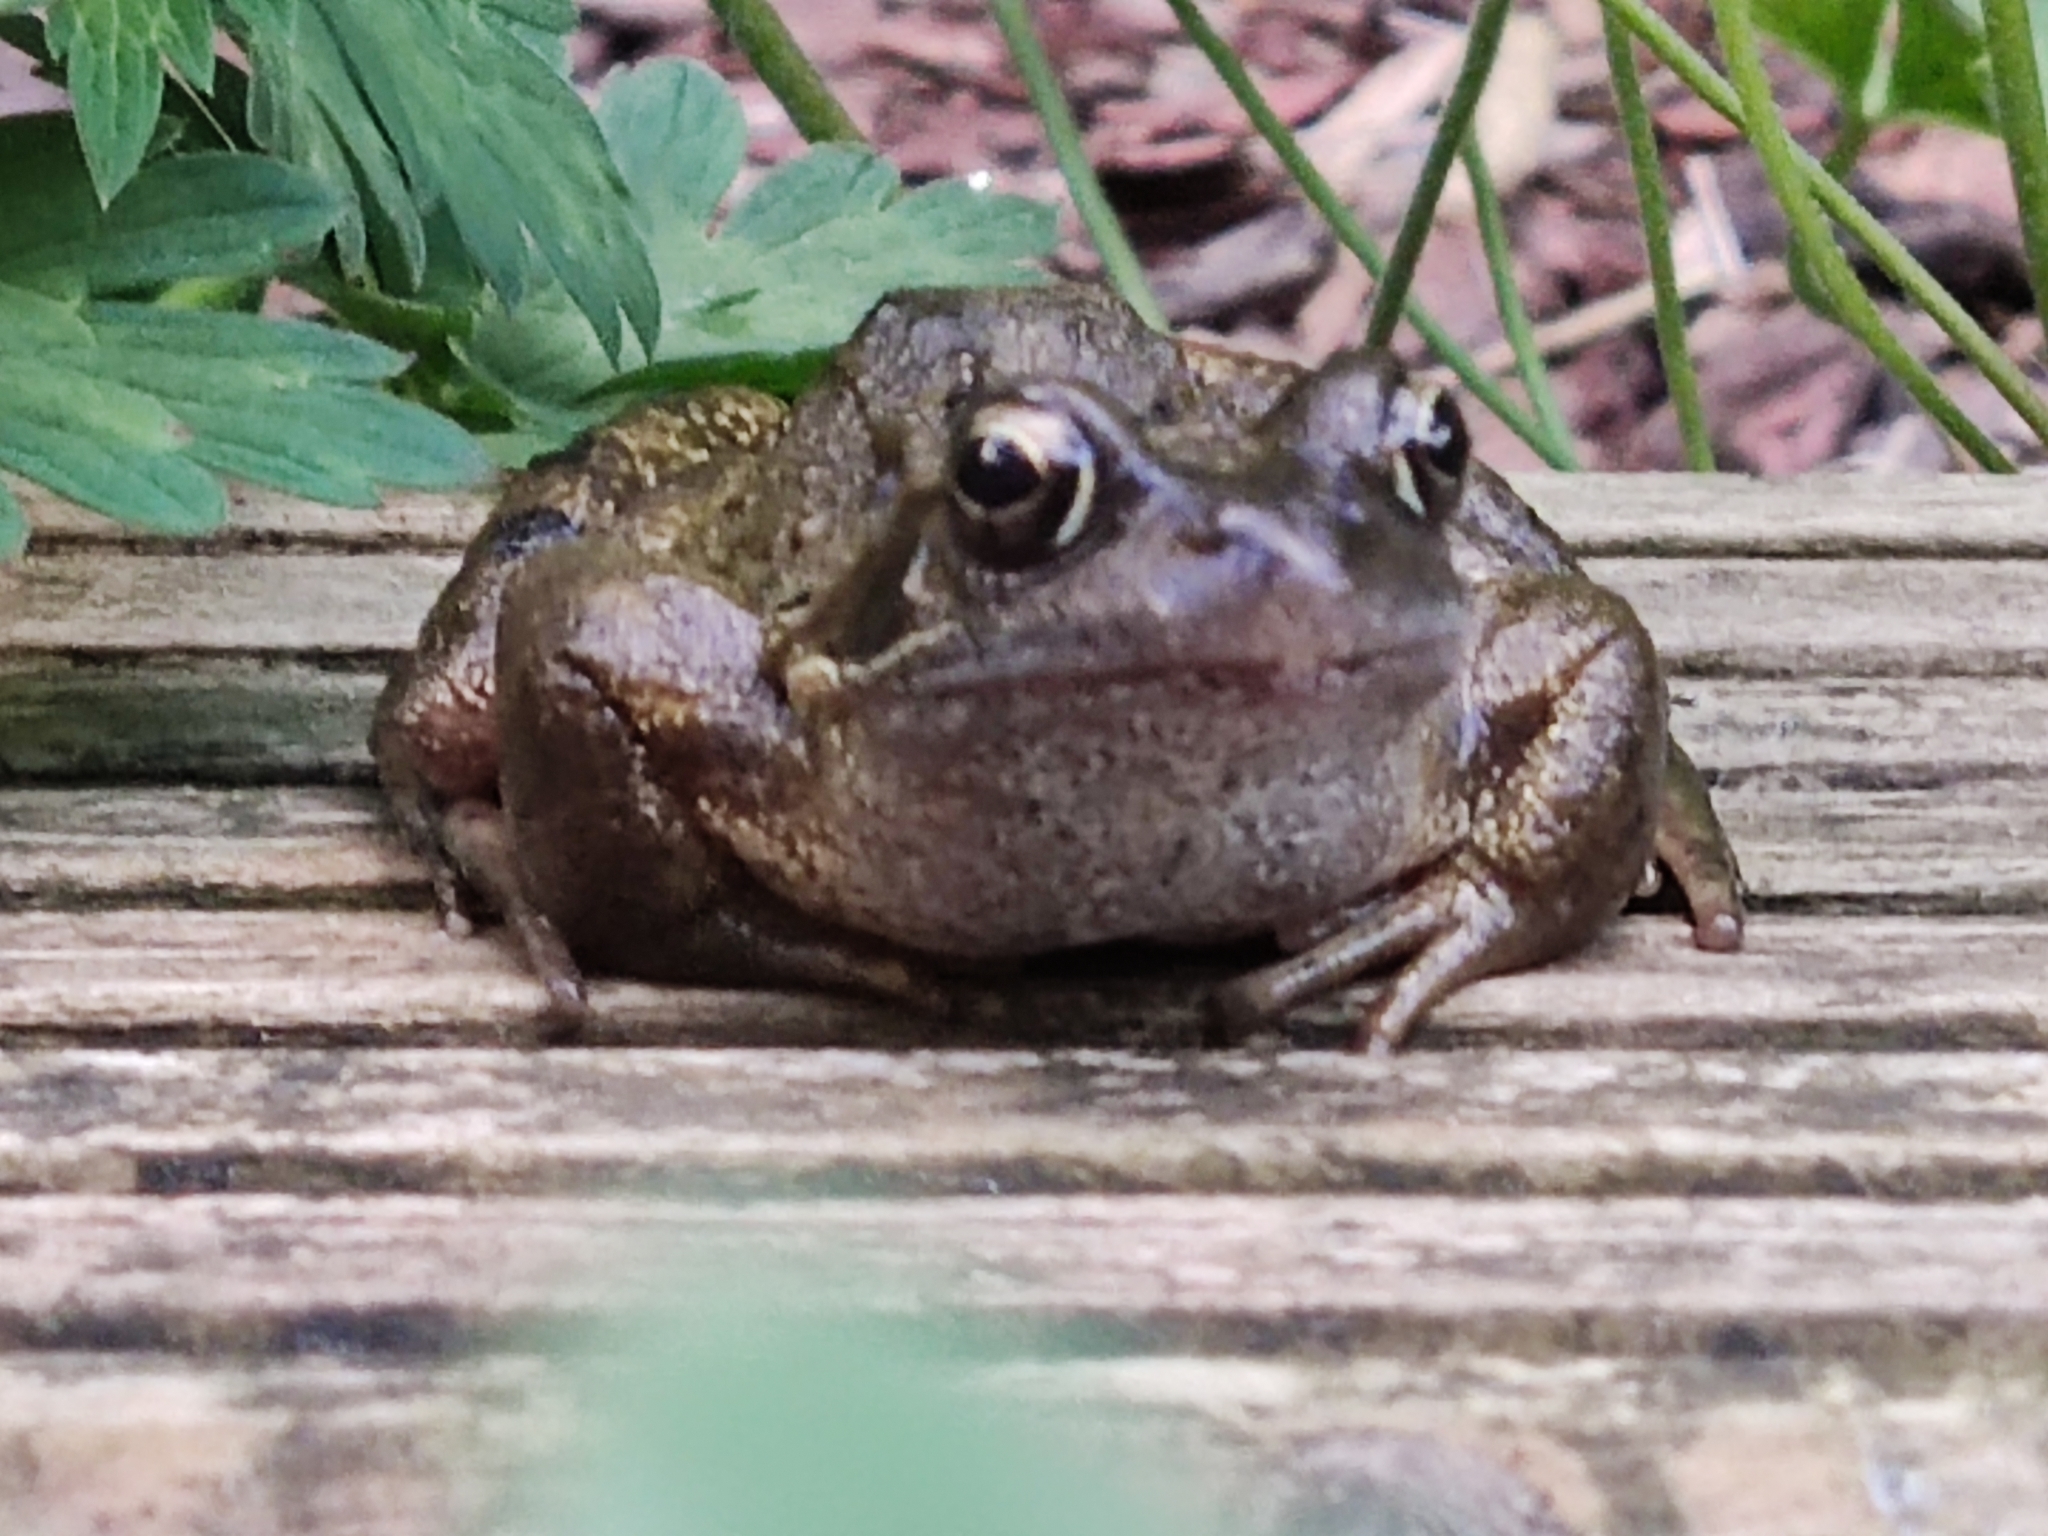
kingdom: Animalia
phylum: Chordata
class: Amphibia
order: Anura
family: Ranidae
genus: Rana
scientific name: Rana temporaria
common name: Common frog
